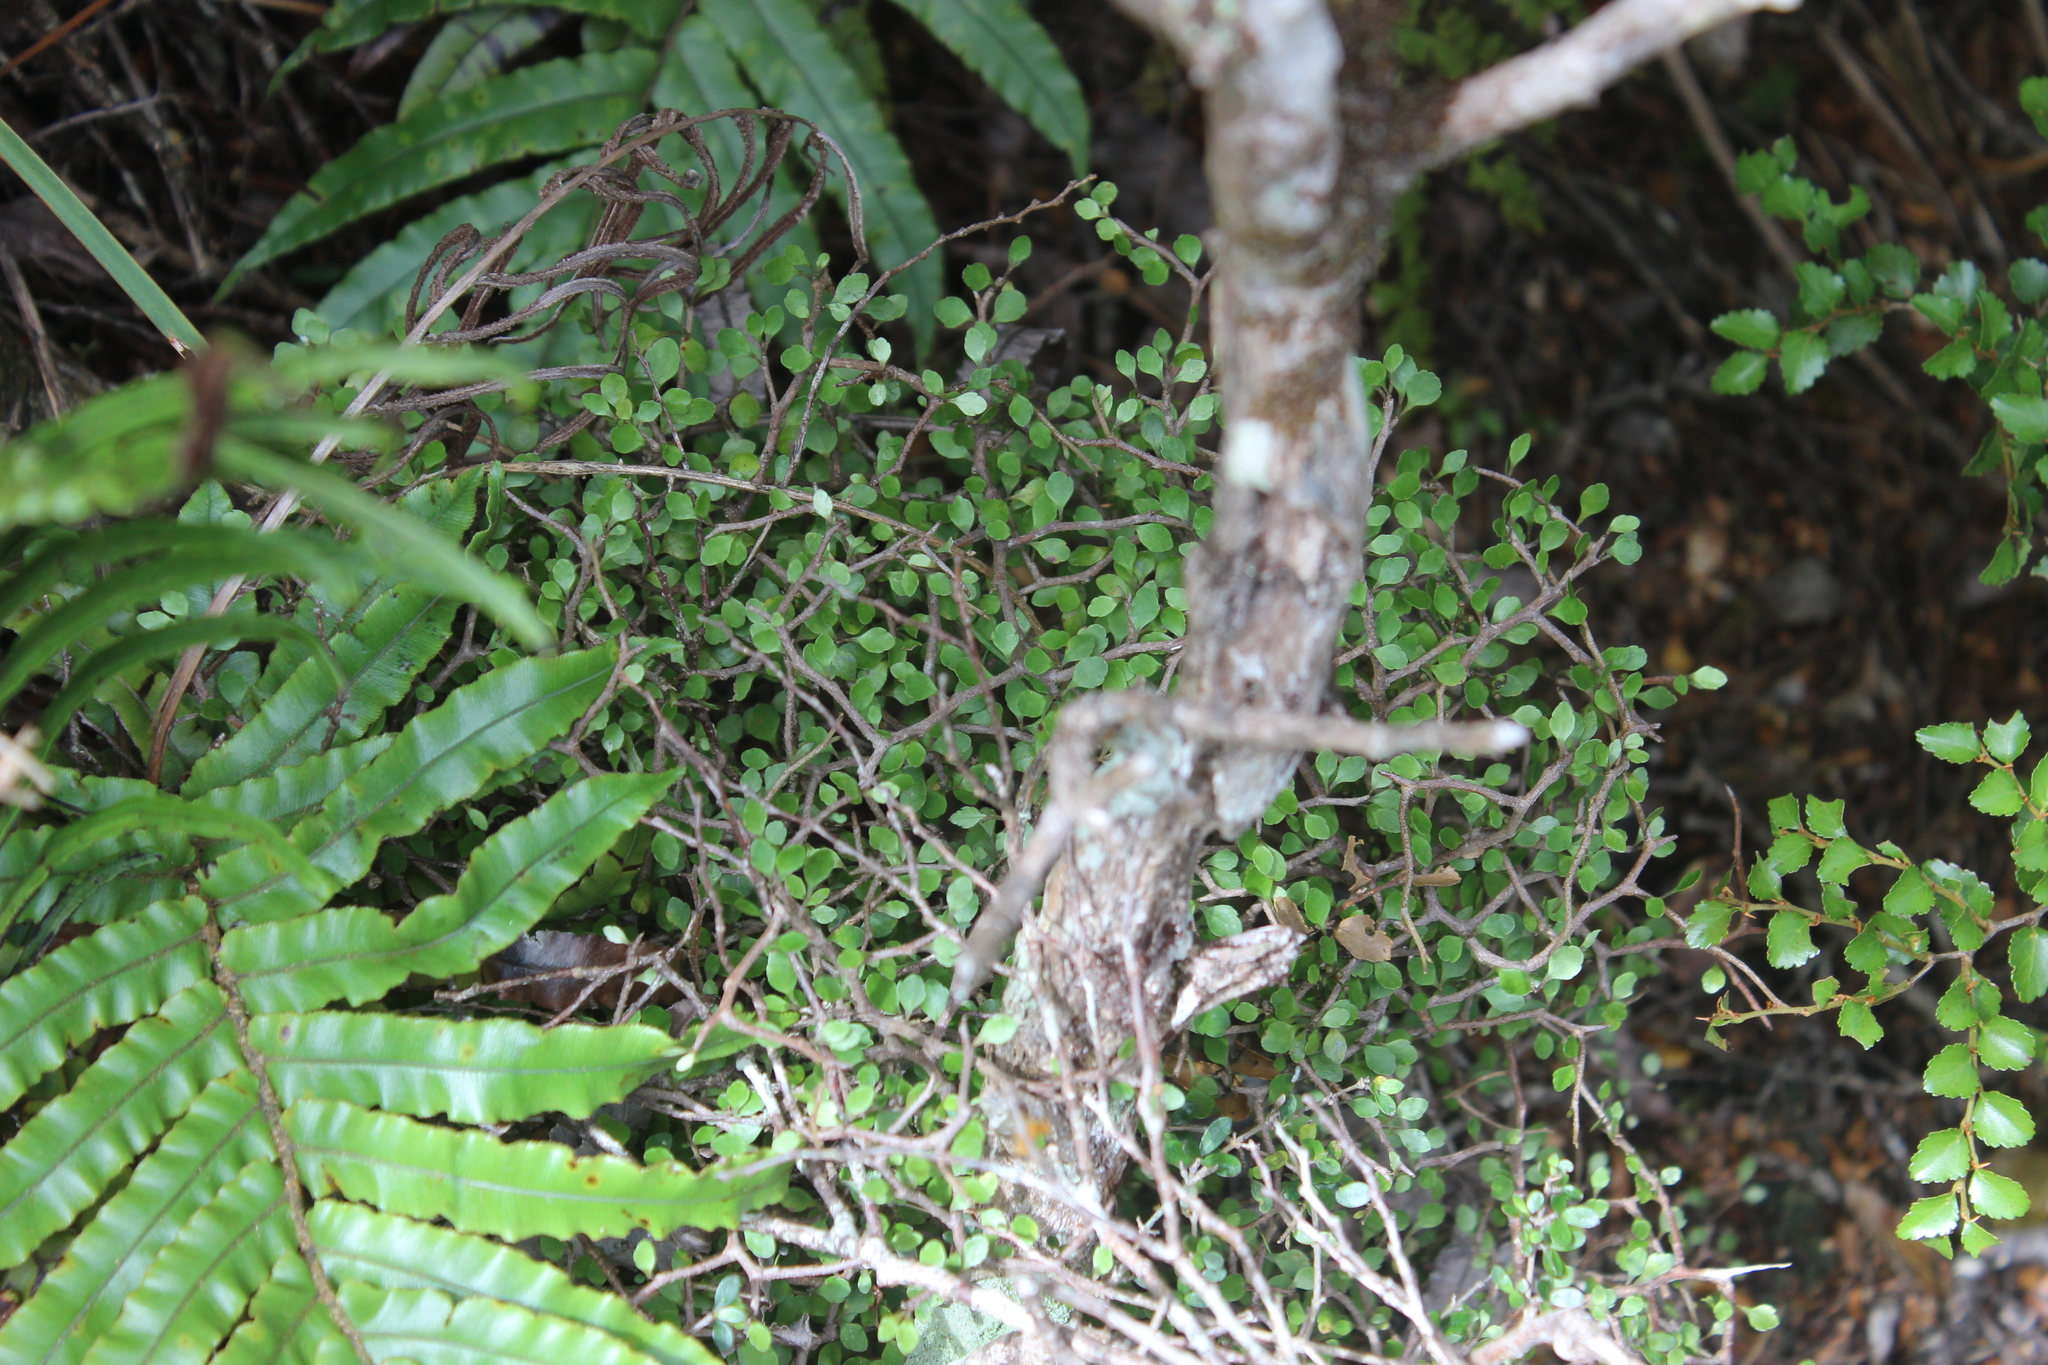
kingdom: Plantae
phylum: Tracheophyta
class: Magnoliopsida
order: Apiales
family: Araliaceae
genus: Raukaua
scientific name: Raukaua anomalus
